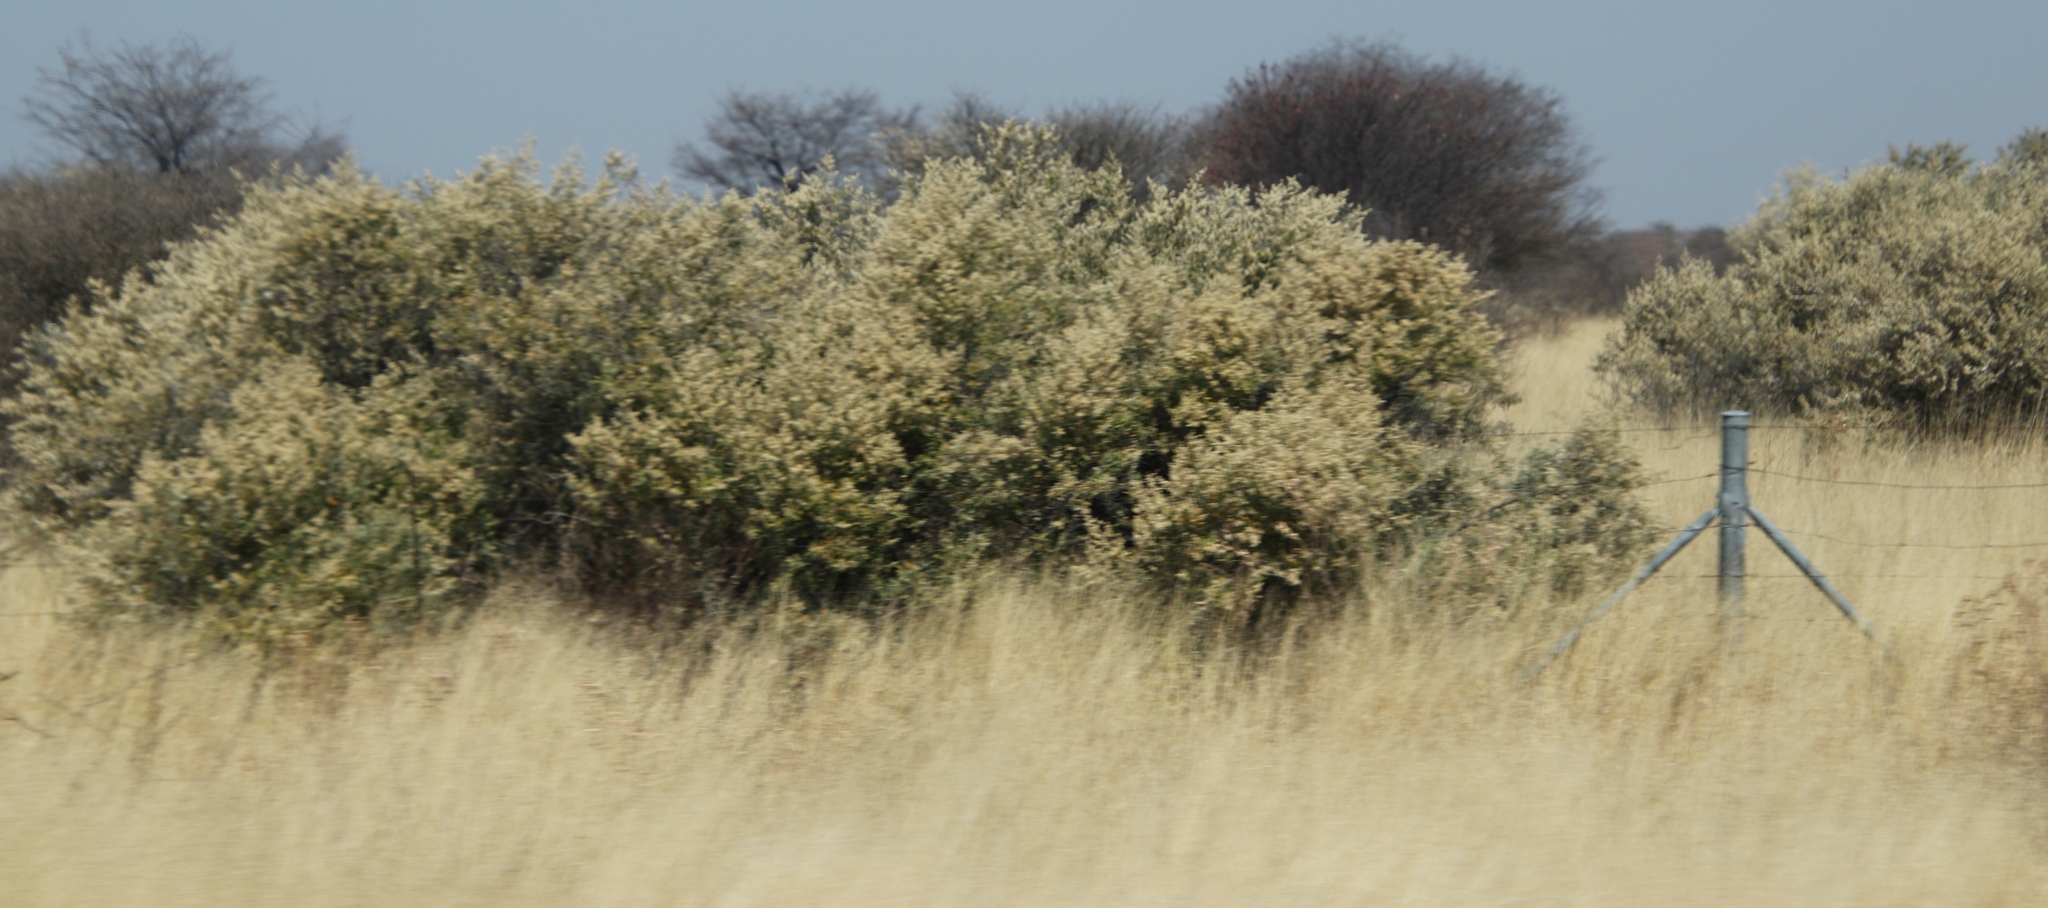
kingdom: Plantae
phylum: Tracheophyta
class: Magnoliopsida
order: Fabales
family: Fabaceae
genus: Senegalia
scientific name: Senegalia mellifera
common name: Hookthorn
